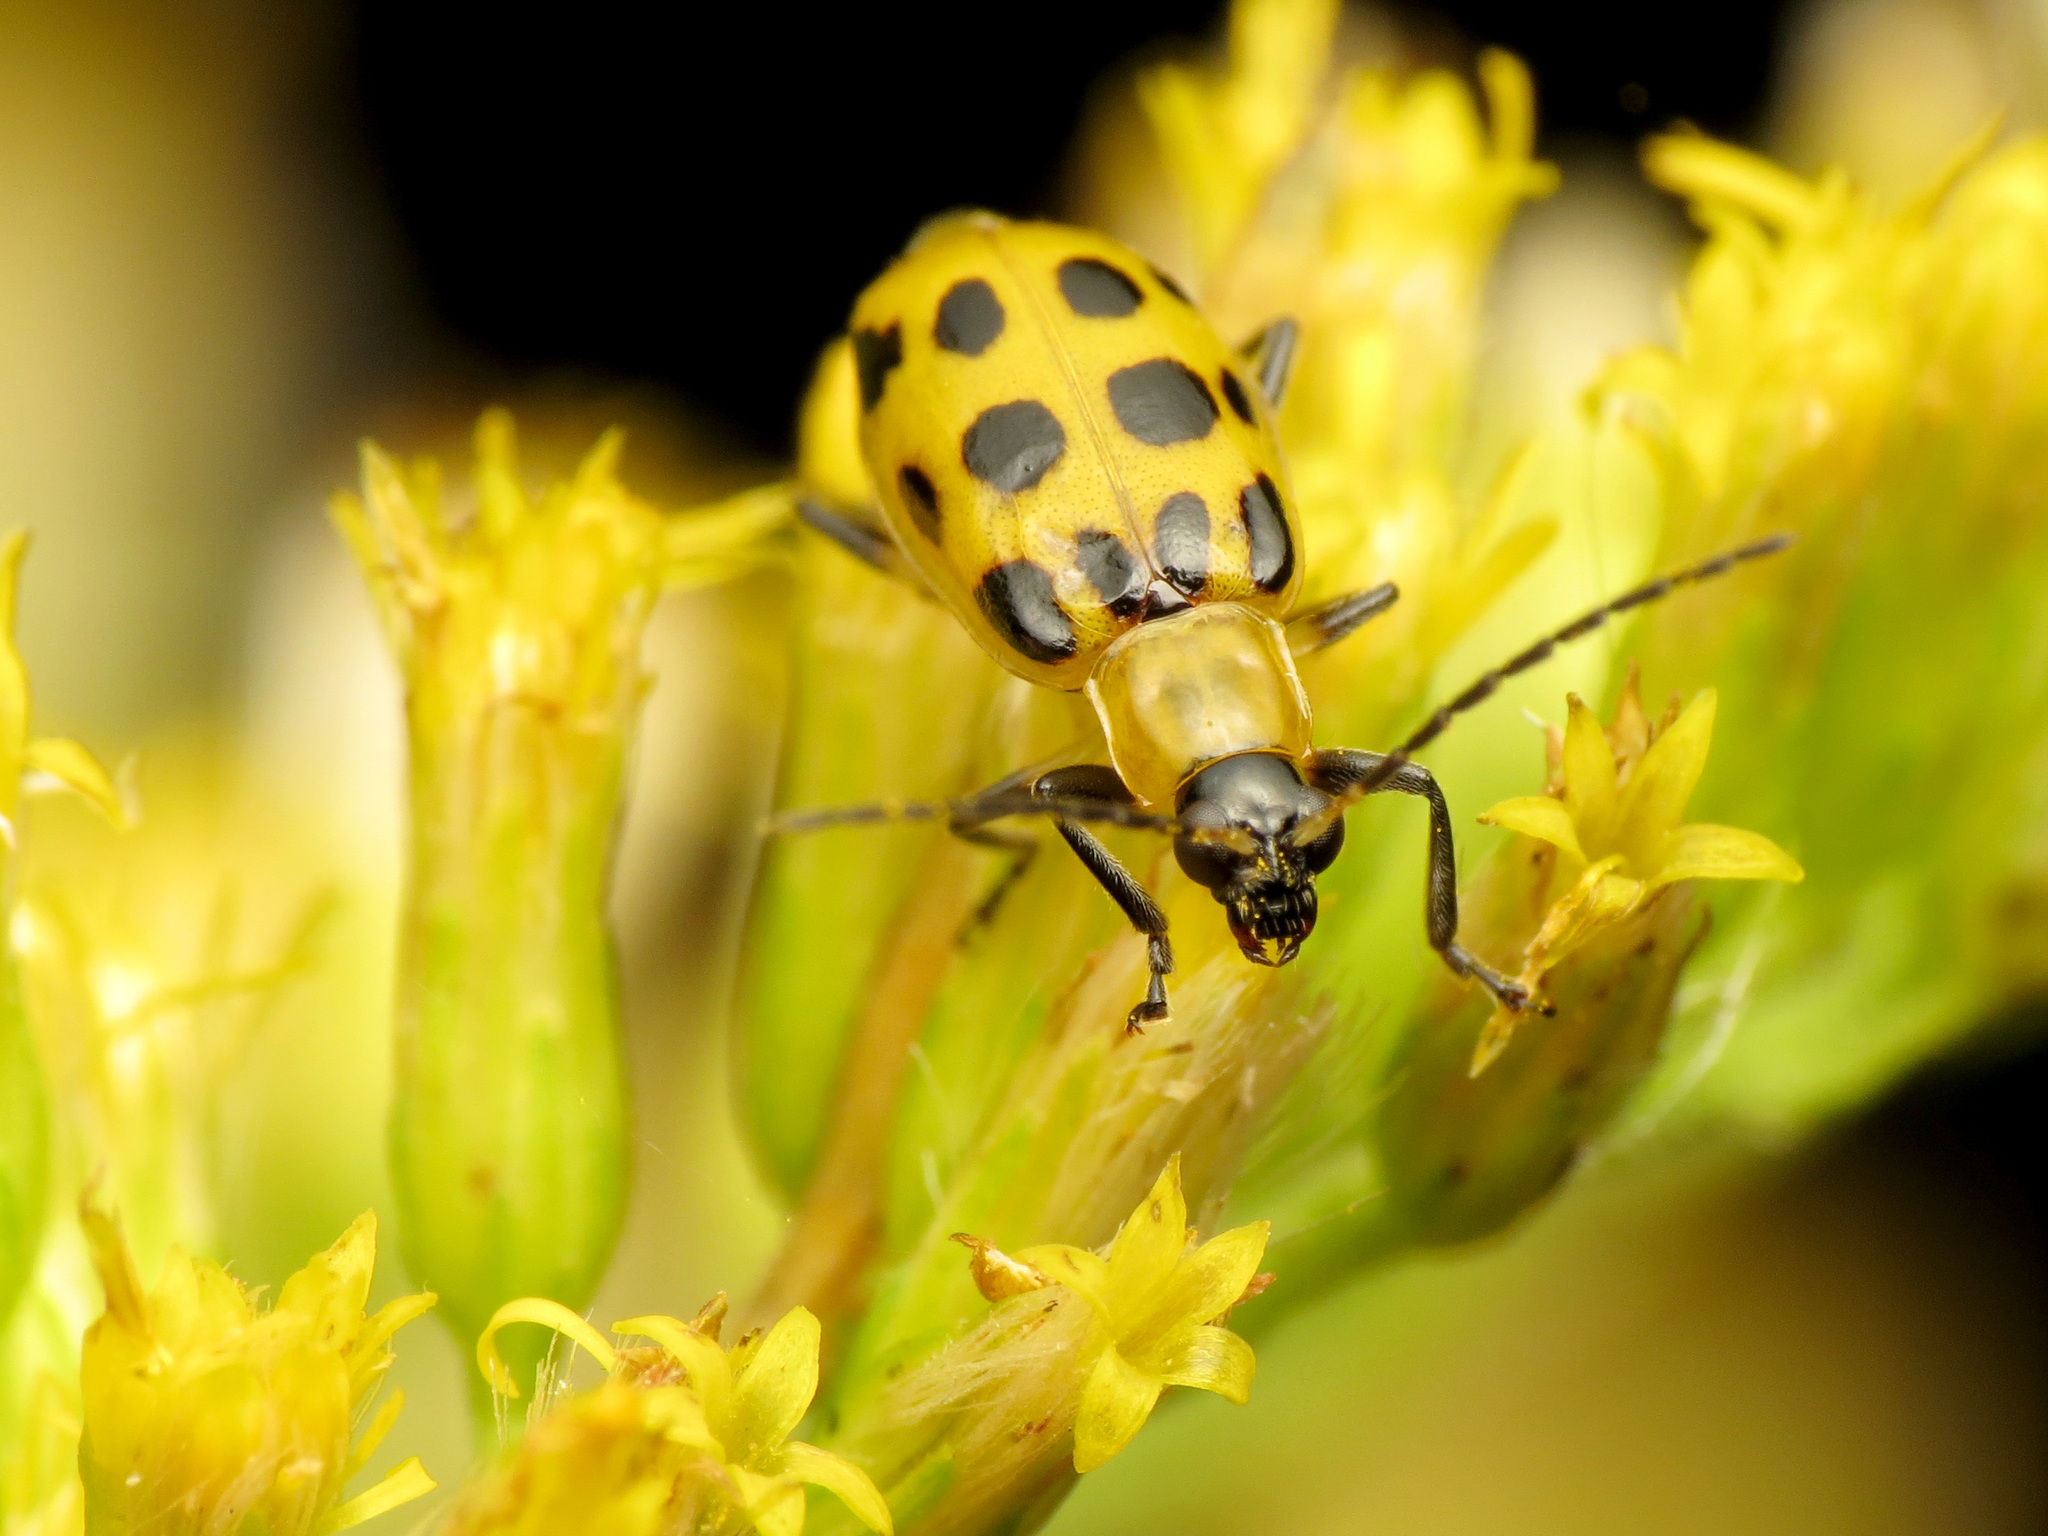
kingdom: Animalia
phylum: Arthropoda
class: Insecta
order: Coleoptera
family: Chrysomelidae
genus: Diabrotica
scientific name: Diabrotica undecimpunctata
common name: Spotted cucumber beetle
